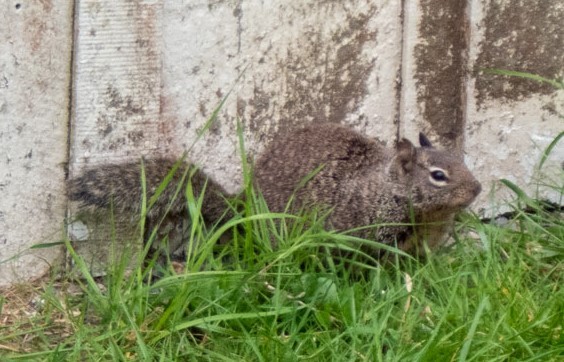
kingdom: Animalia
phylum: Chordata
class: Mammalia
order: Rodentia
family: Sciuridae
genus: Otospermophilus
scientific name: Otospermophilus beecheyi
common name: California ground squirrel
